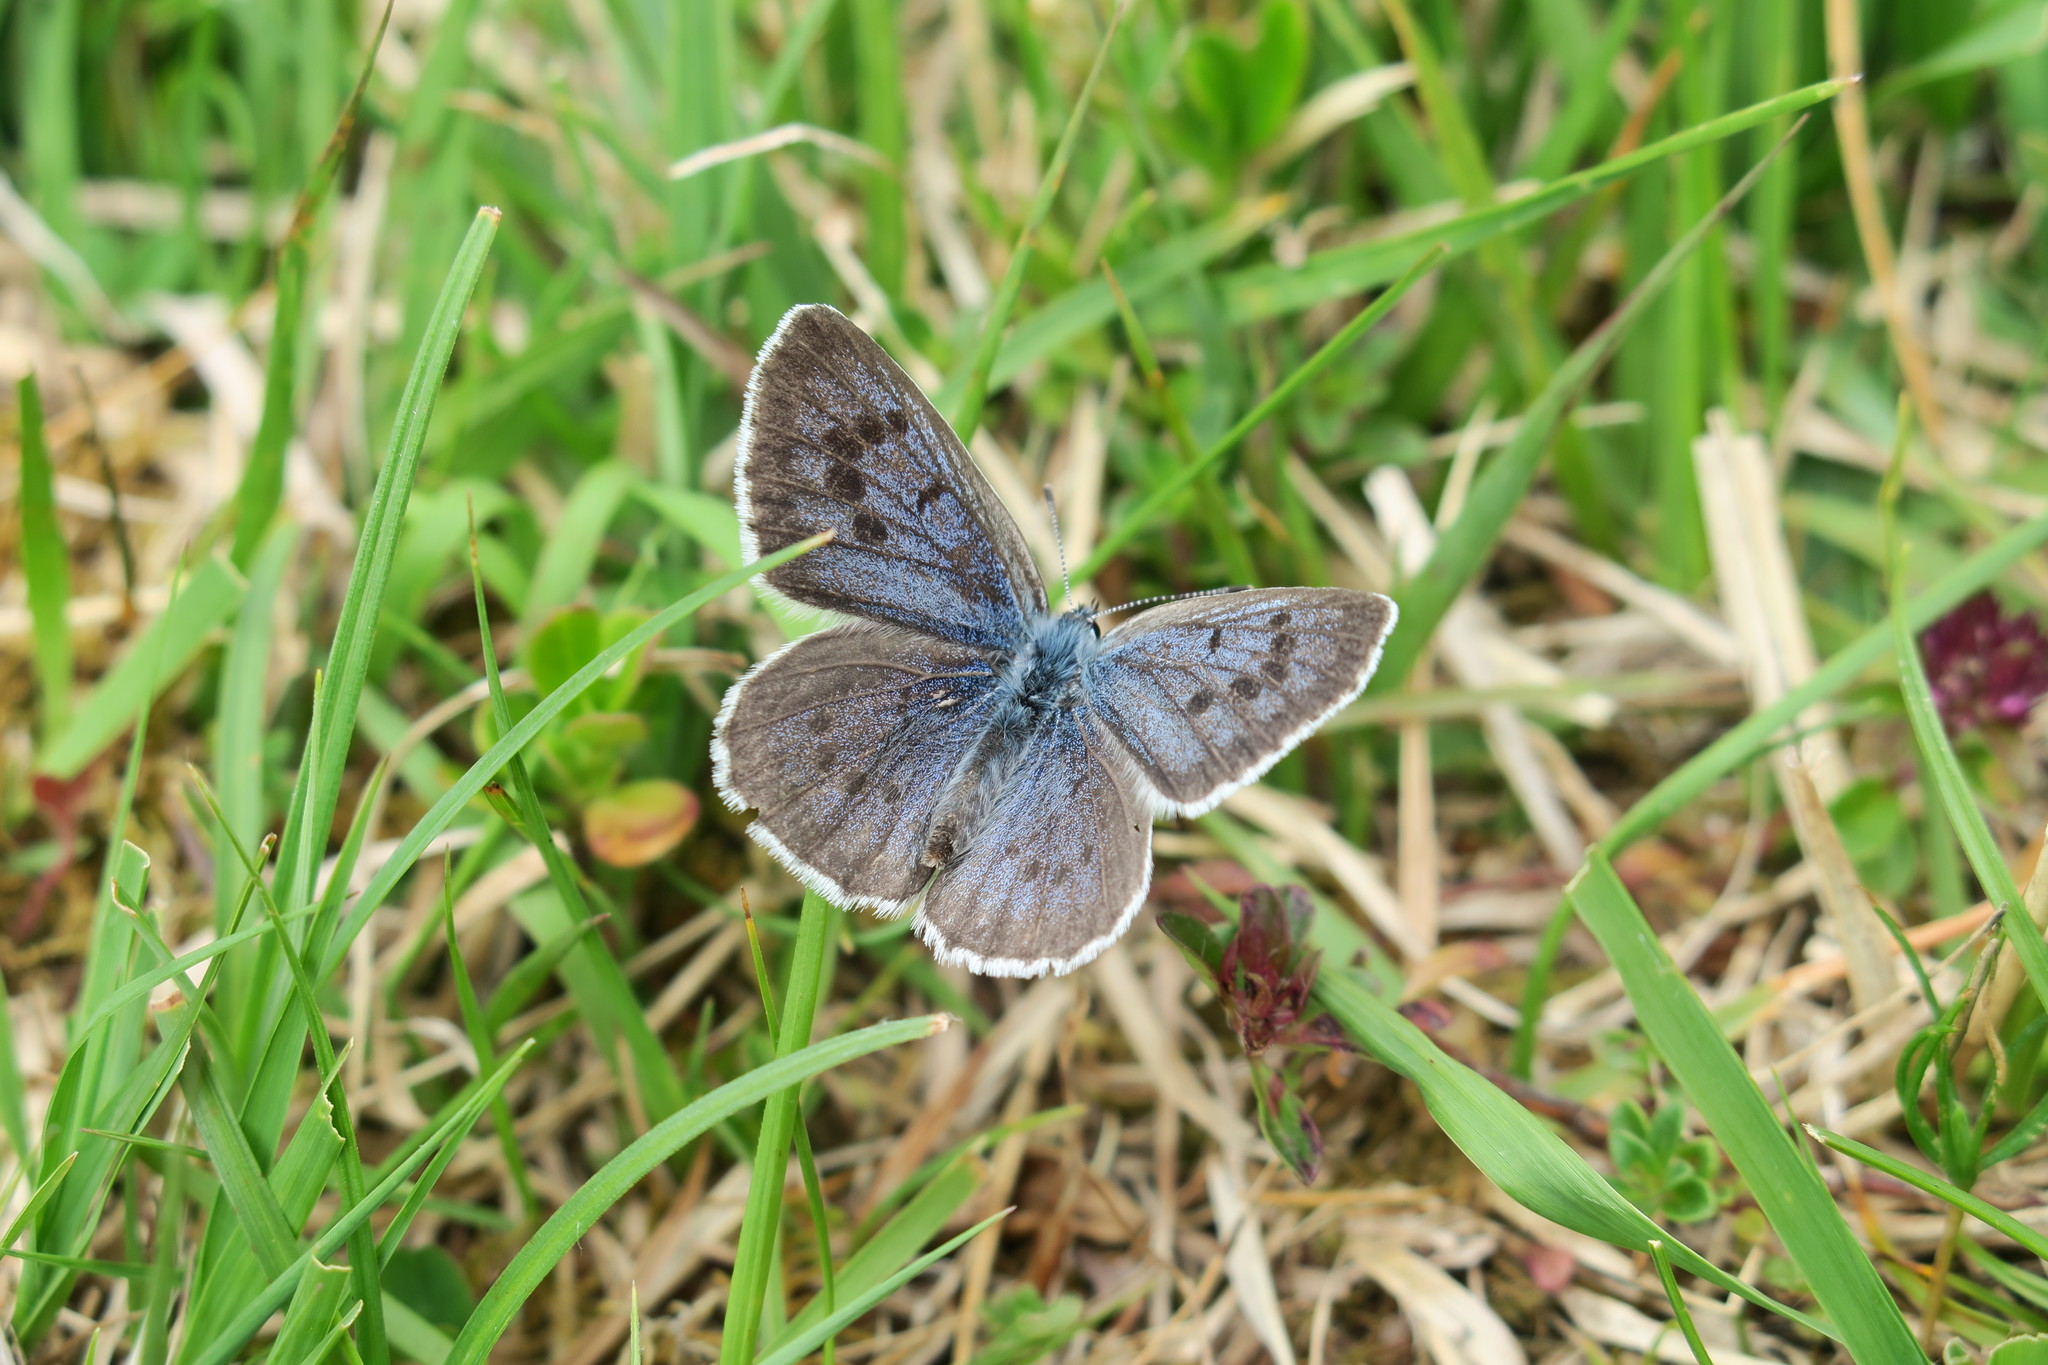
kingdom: Animalia
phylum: Arthropoda
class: Insecta
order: Lepidoptera
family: Lycaenidae
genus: Maculinea
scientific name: Maculinea arion
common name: Large blue
